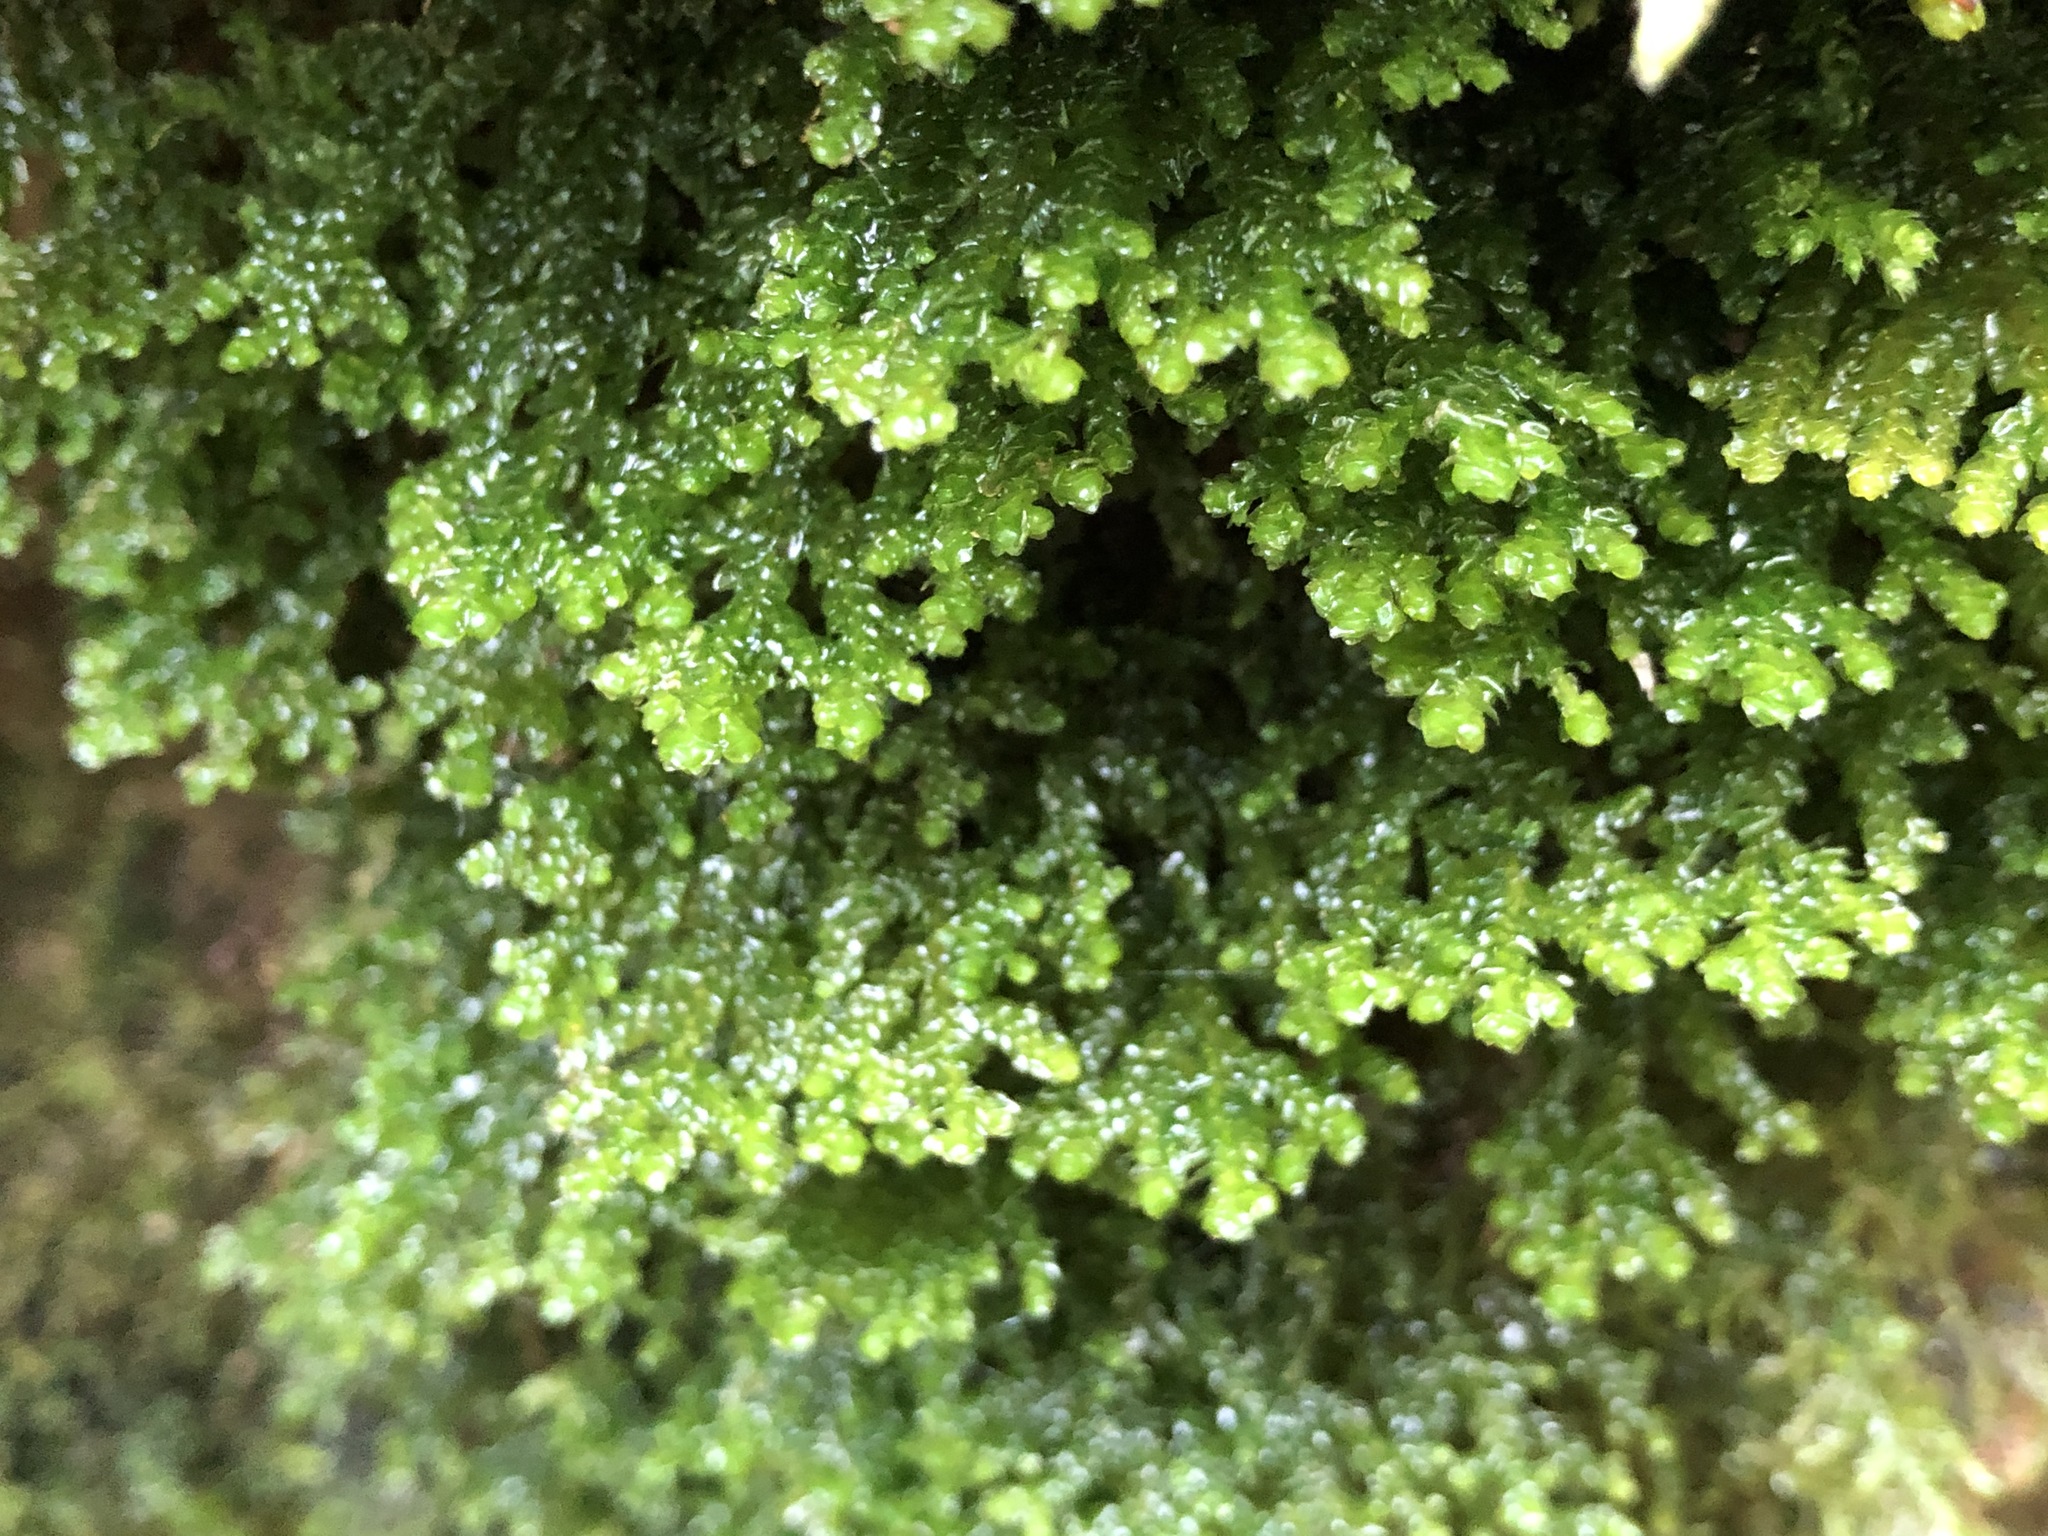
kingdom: Plantae
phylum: Marchantiophyta
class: Jungermanniopsida
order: Porellales
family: Porellaceae
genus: Porella
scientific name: Porella platyphylla
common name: Wall scalewort
